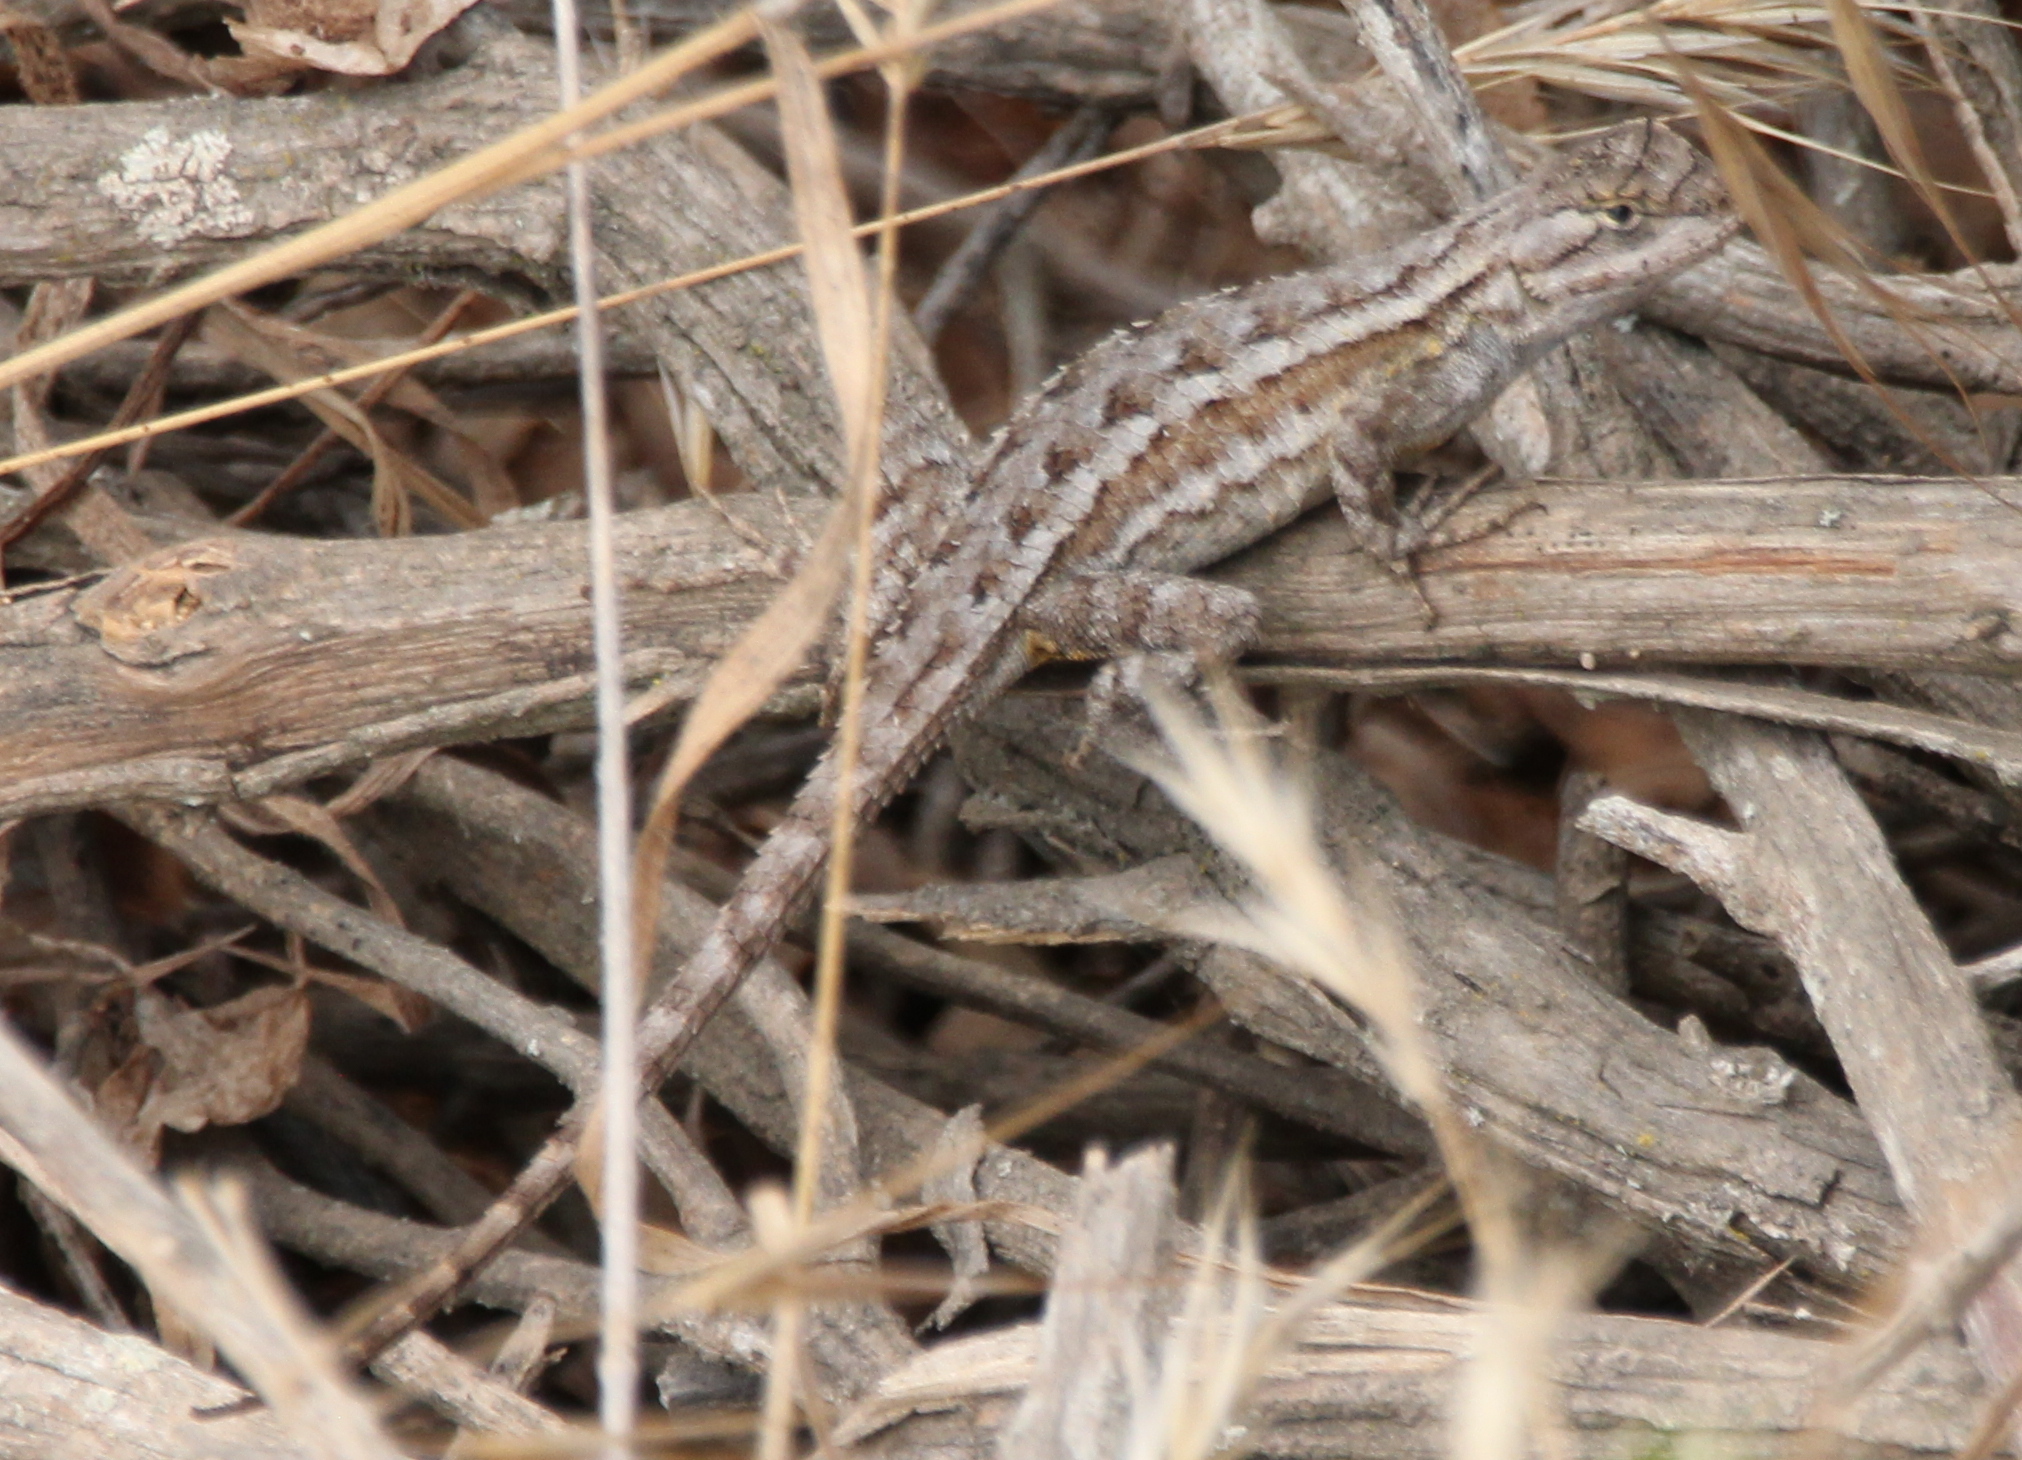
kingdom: Animalia
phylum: Chordata
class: Squamata
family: Phrynosomatidae
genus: Sceloporus
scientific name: Sceloporus occidentalis
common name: Western fence lizard
